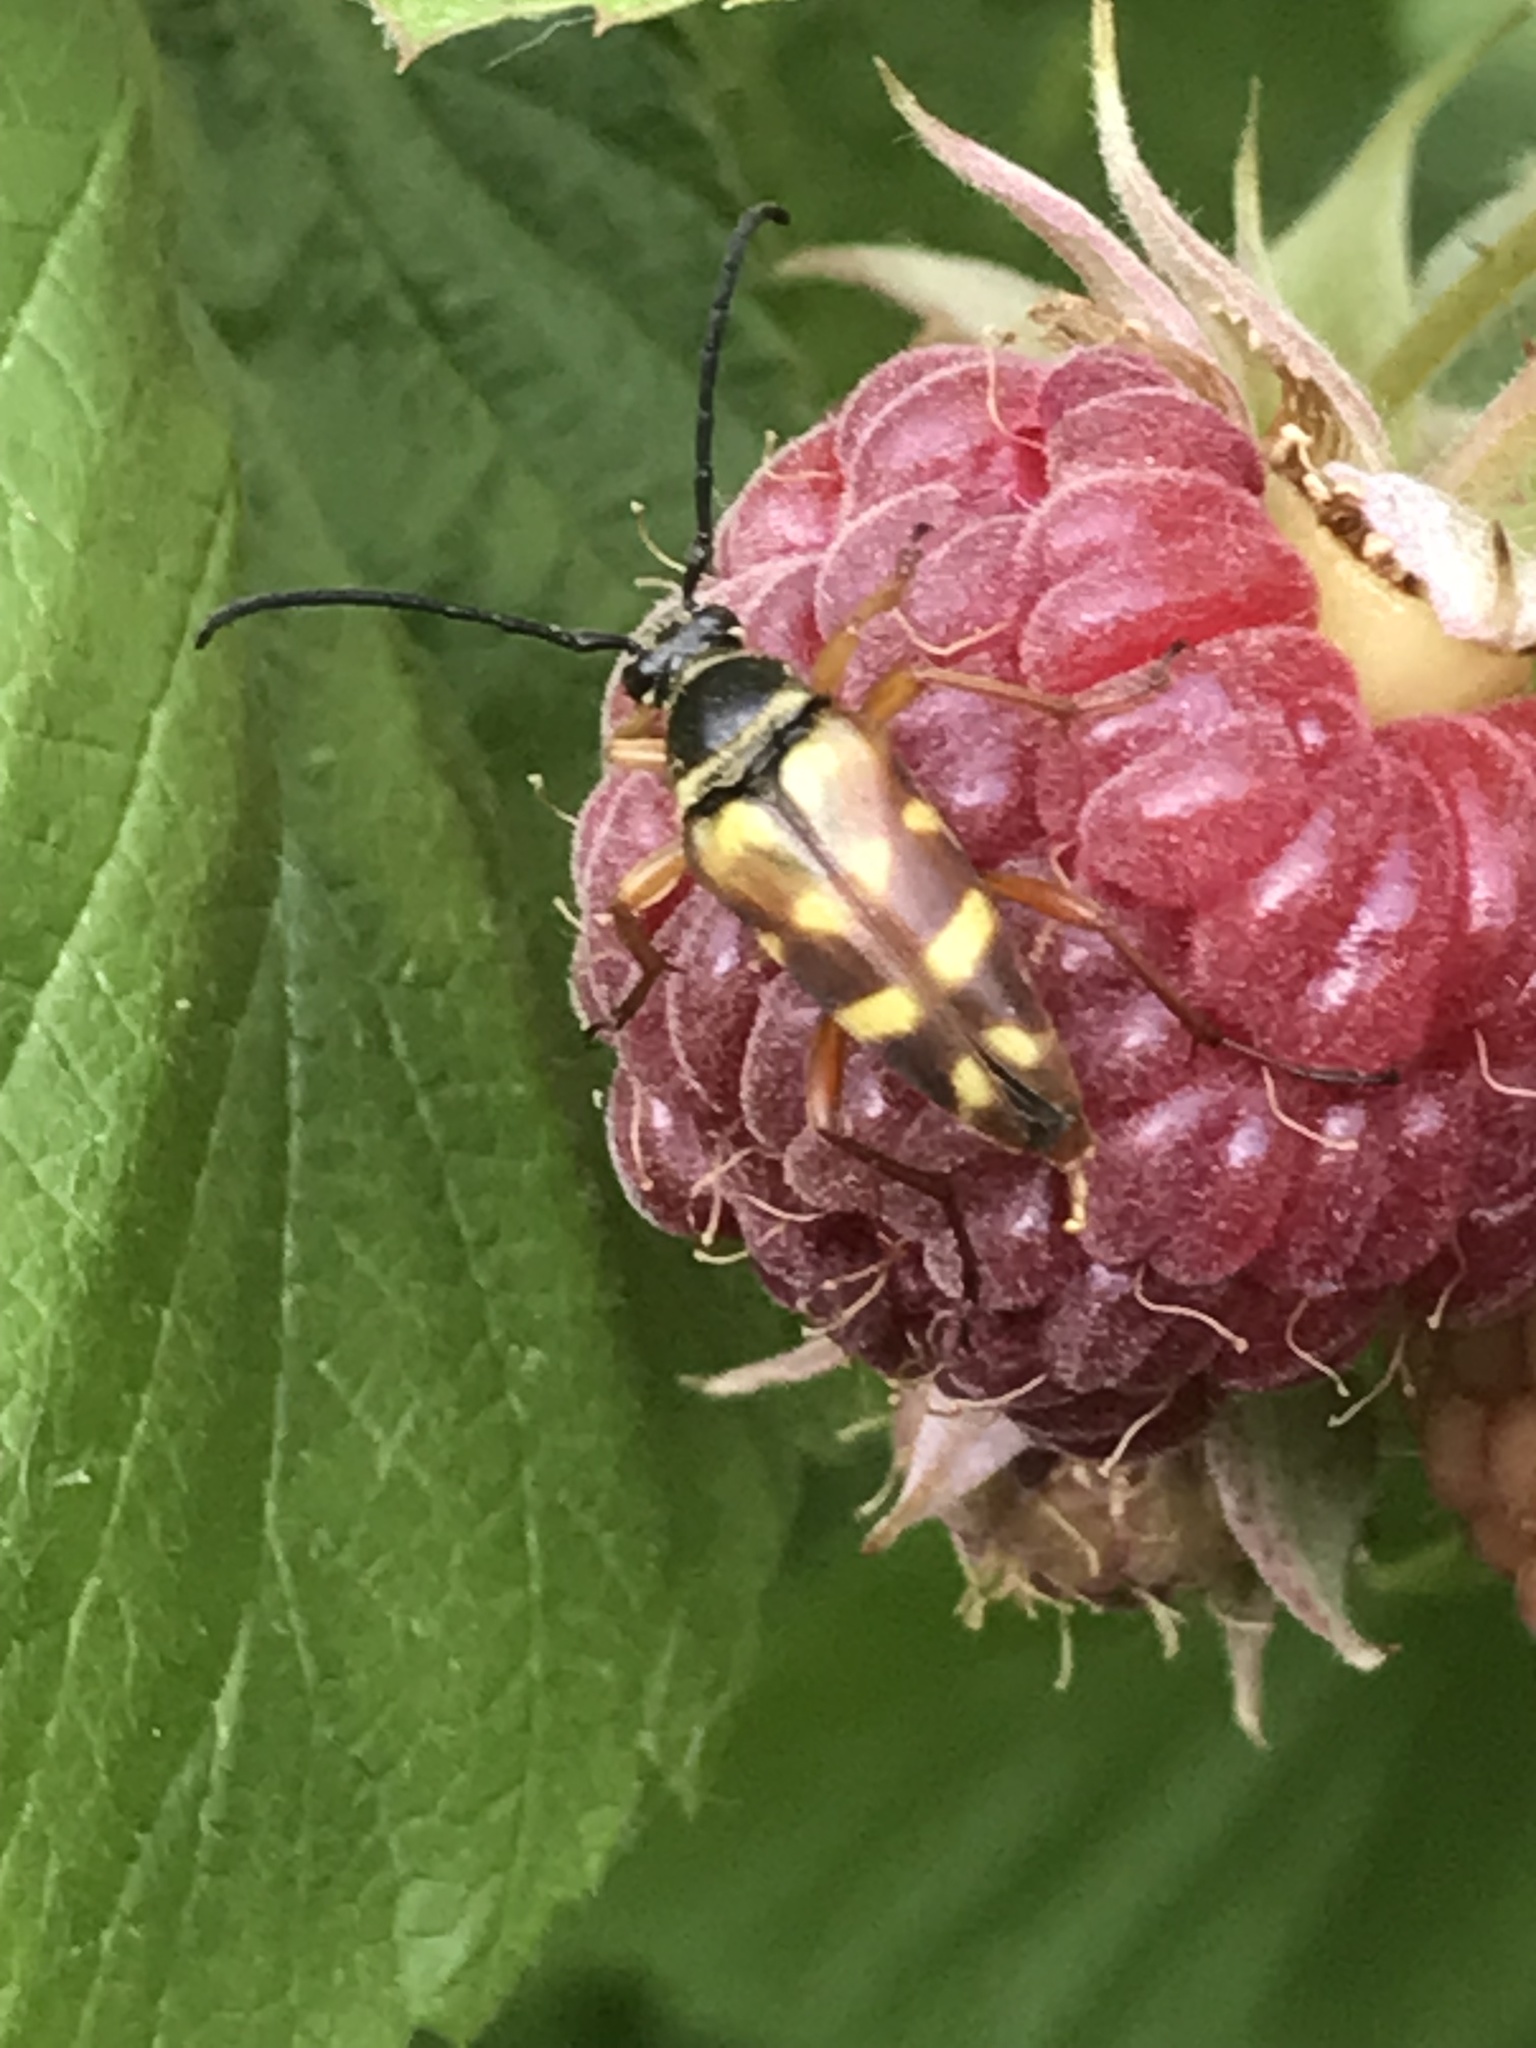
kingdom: Animalia
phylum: Arthropoda
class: Insecta
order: Coleoptera
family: Cerambycidae
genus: Typocerus
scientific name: Typocerus velutinus
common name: Banded longhorn beetle
